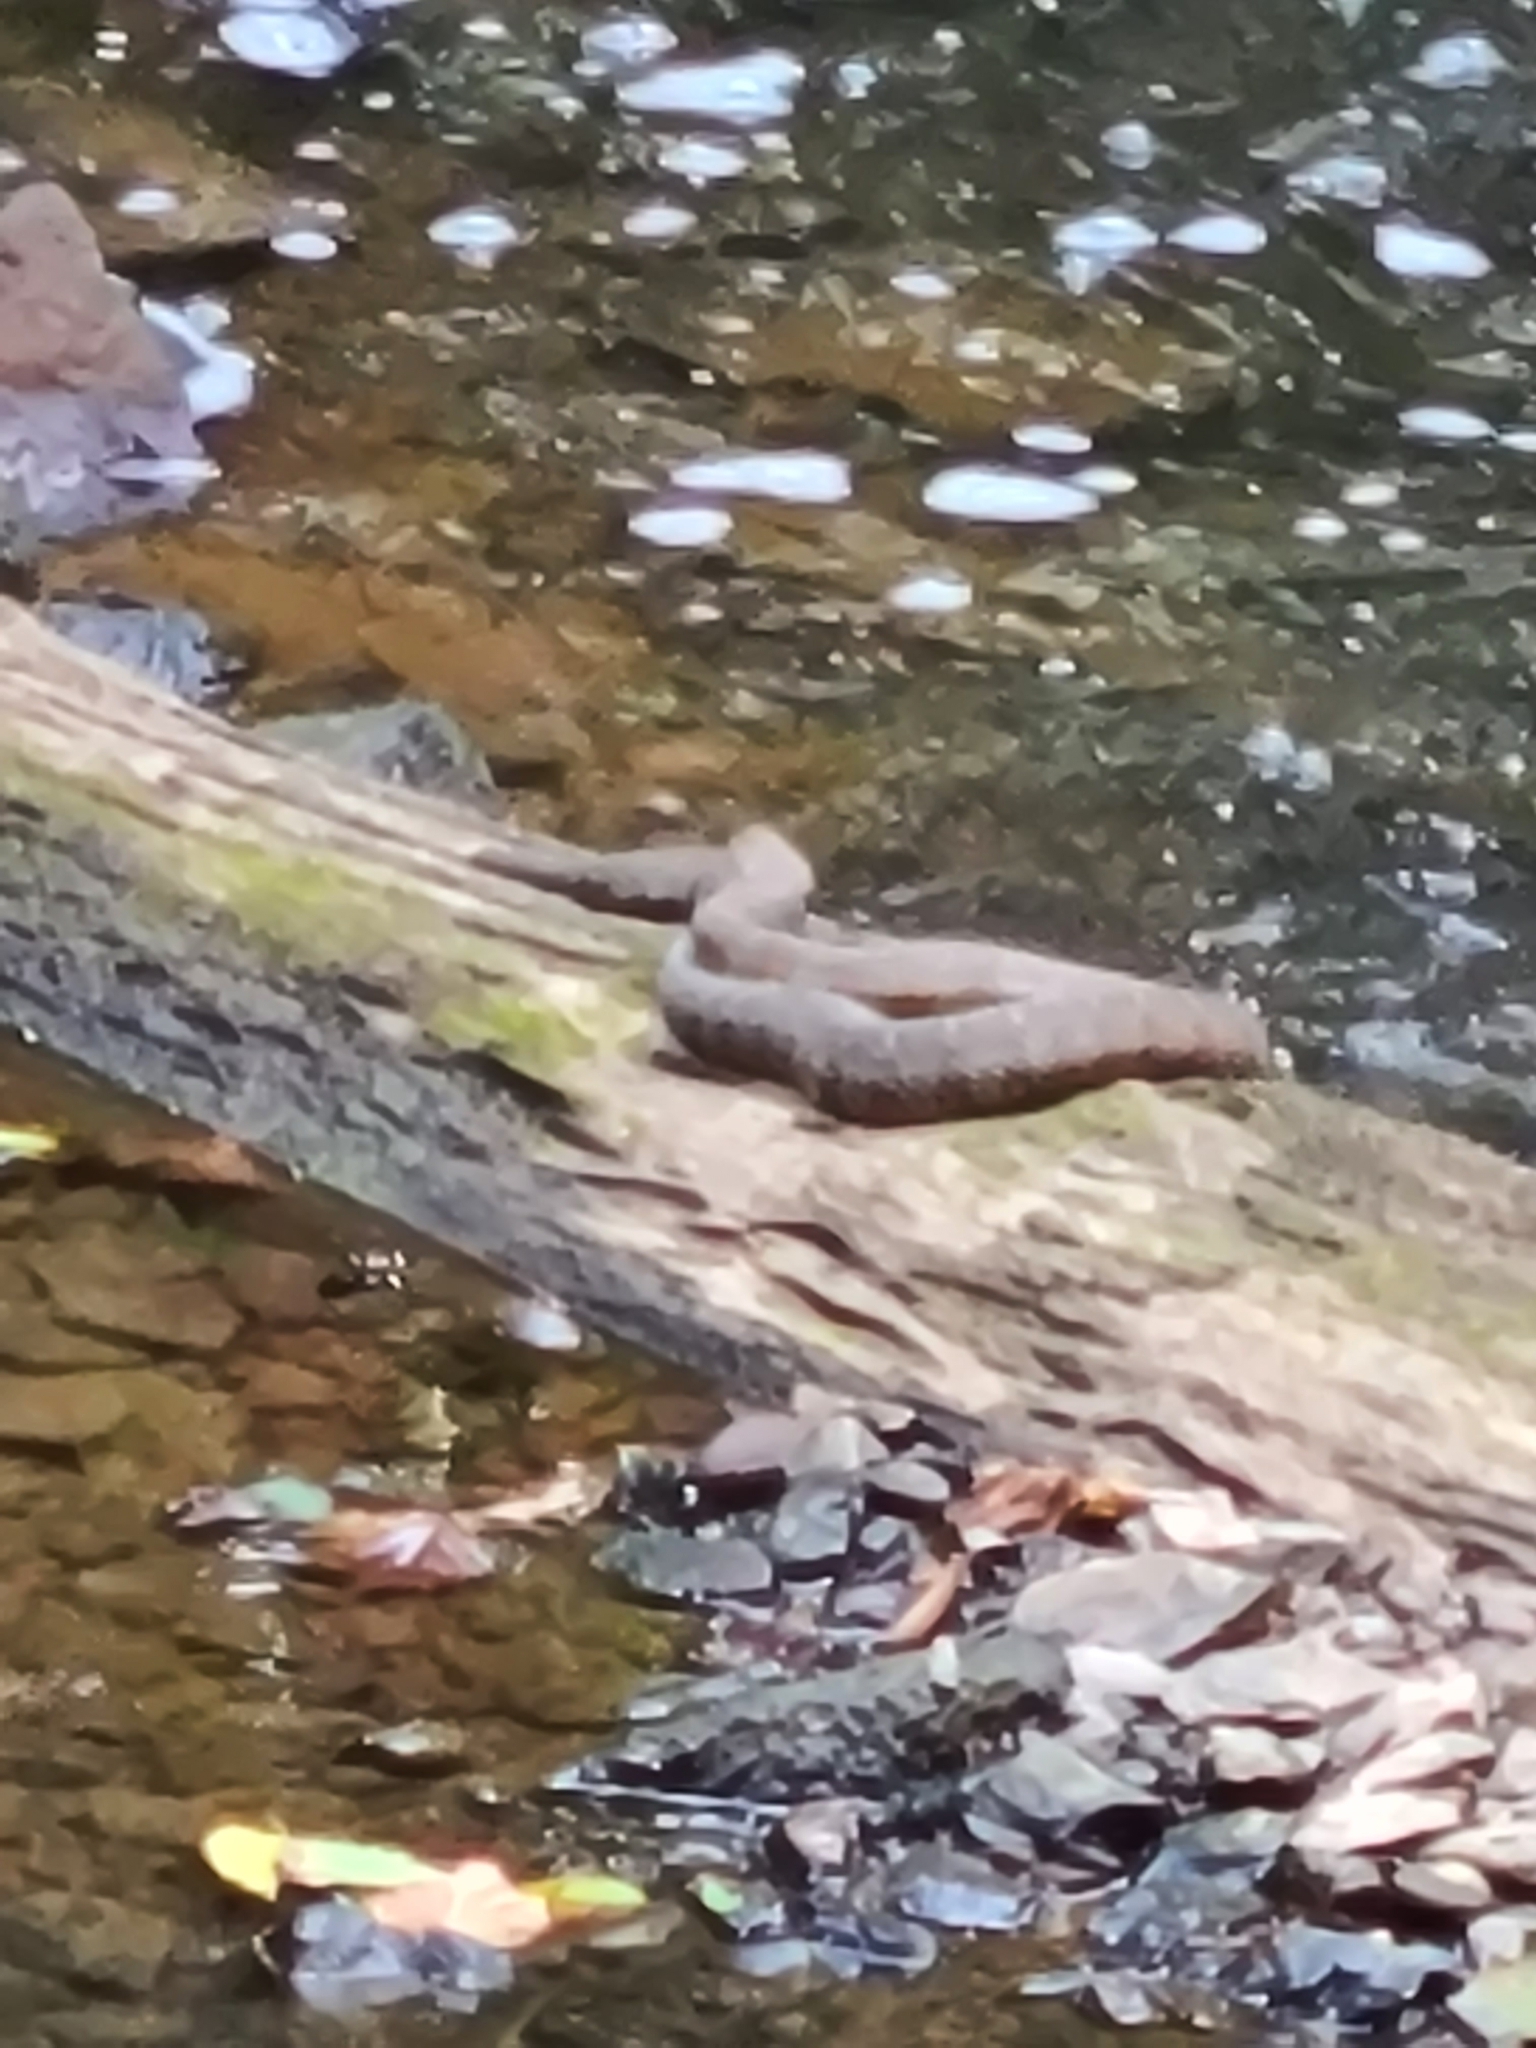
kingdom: Animalia
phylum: Chordata
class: Squamata
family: Colubridae
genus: Nerodia
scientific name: Nerodia sipedon
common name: Northern water snake
